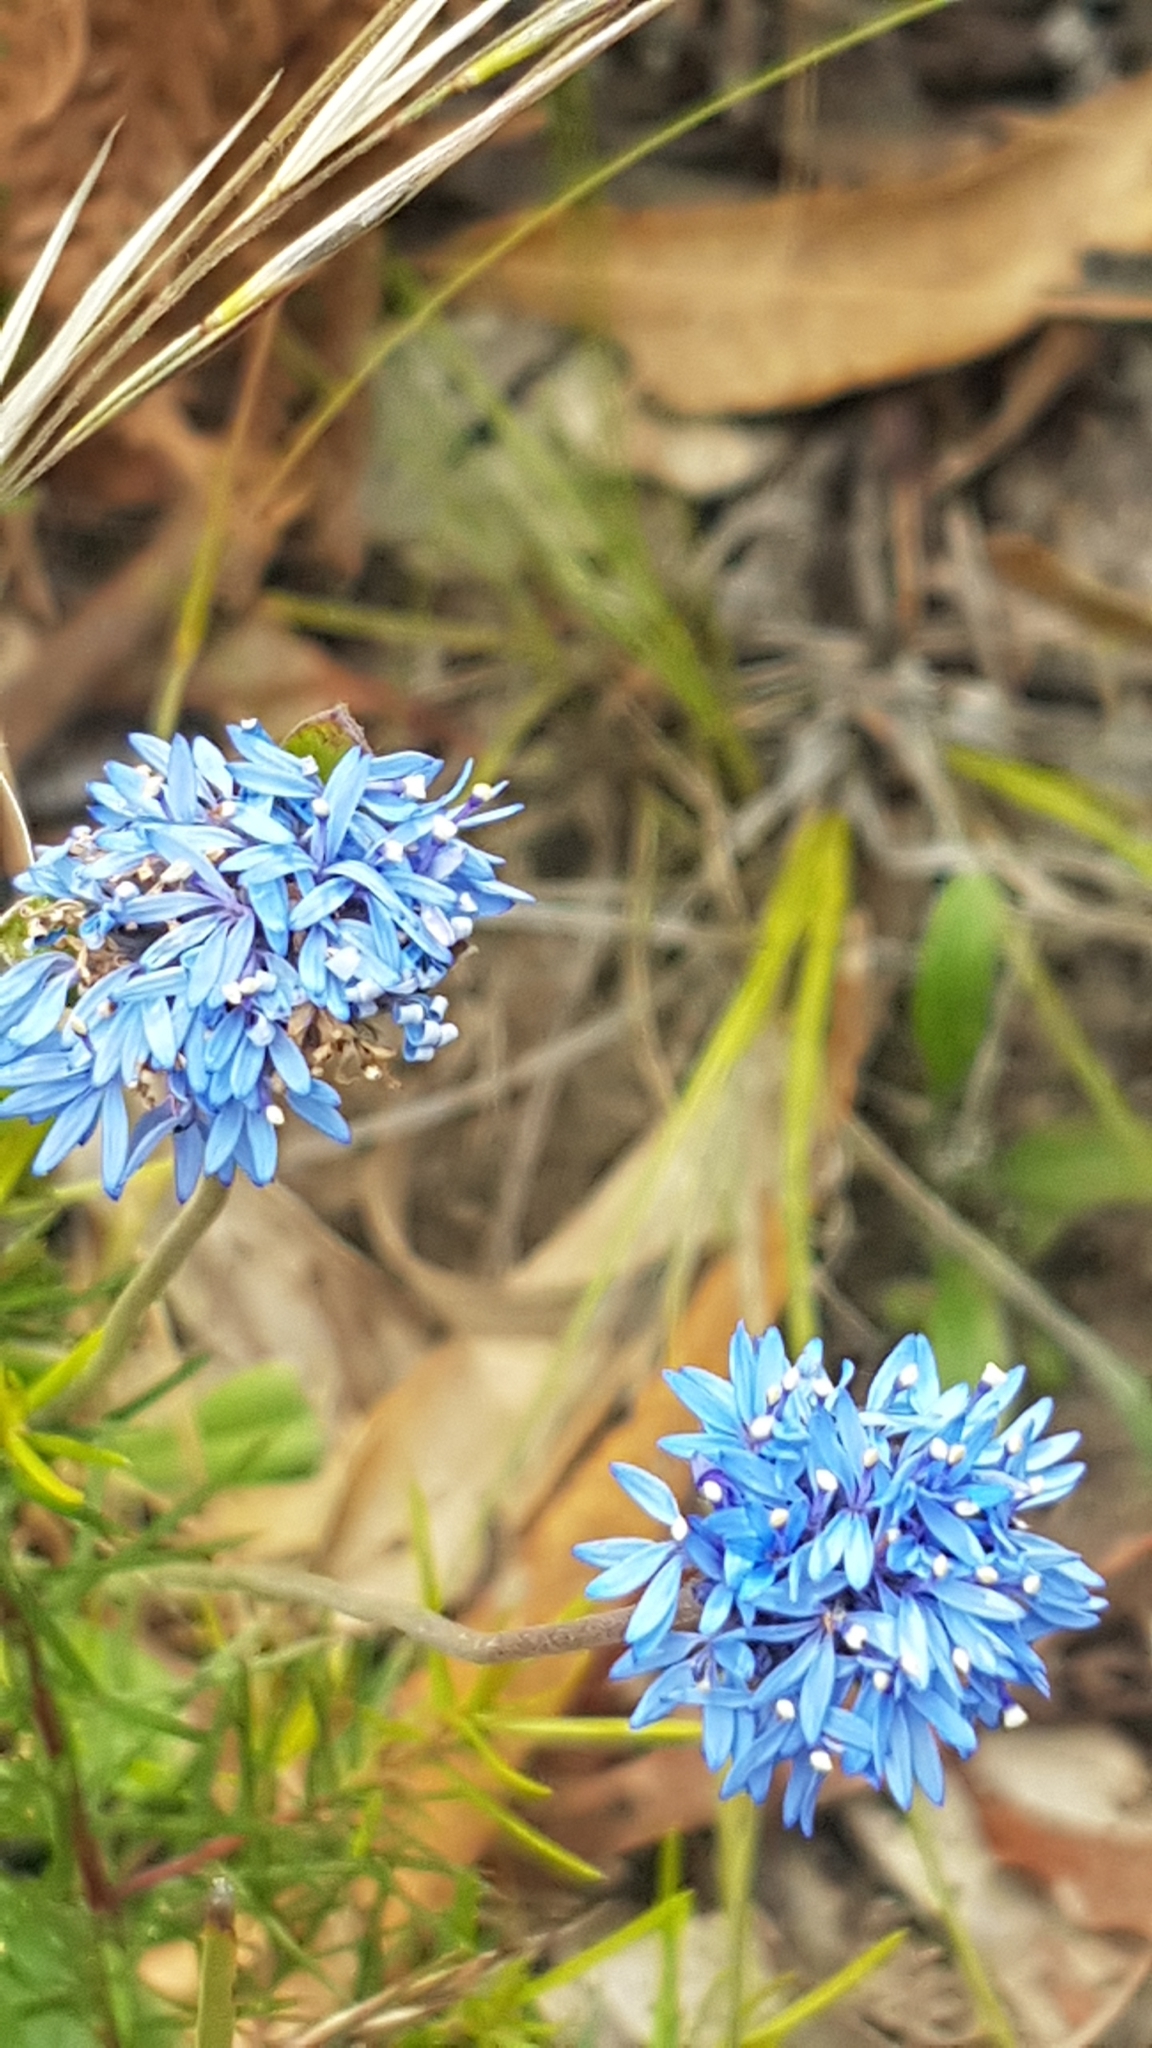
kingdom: Plantae
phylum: Tracheophyta
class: Magnoliopsida
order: Asterales
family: Goodeniaceae
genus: Brunonia
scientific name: Brunonia australis
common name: Blue pincushion
